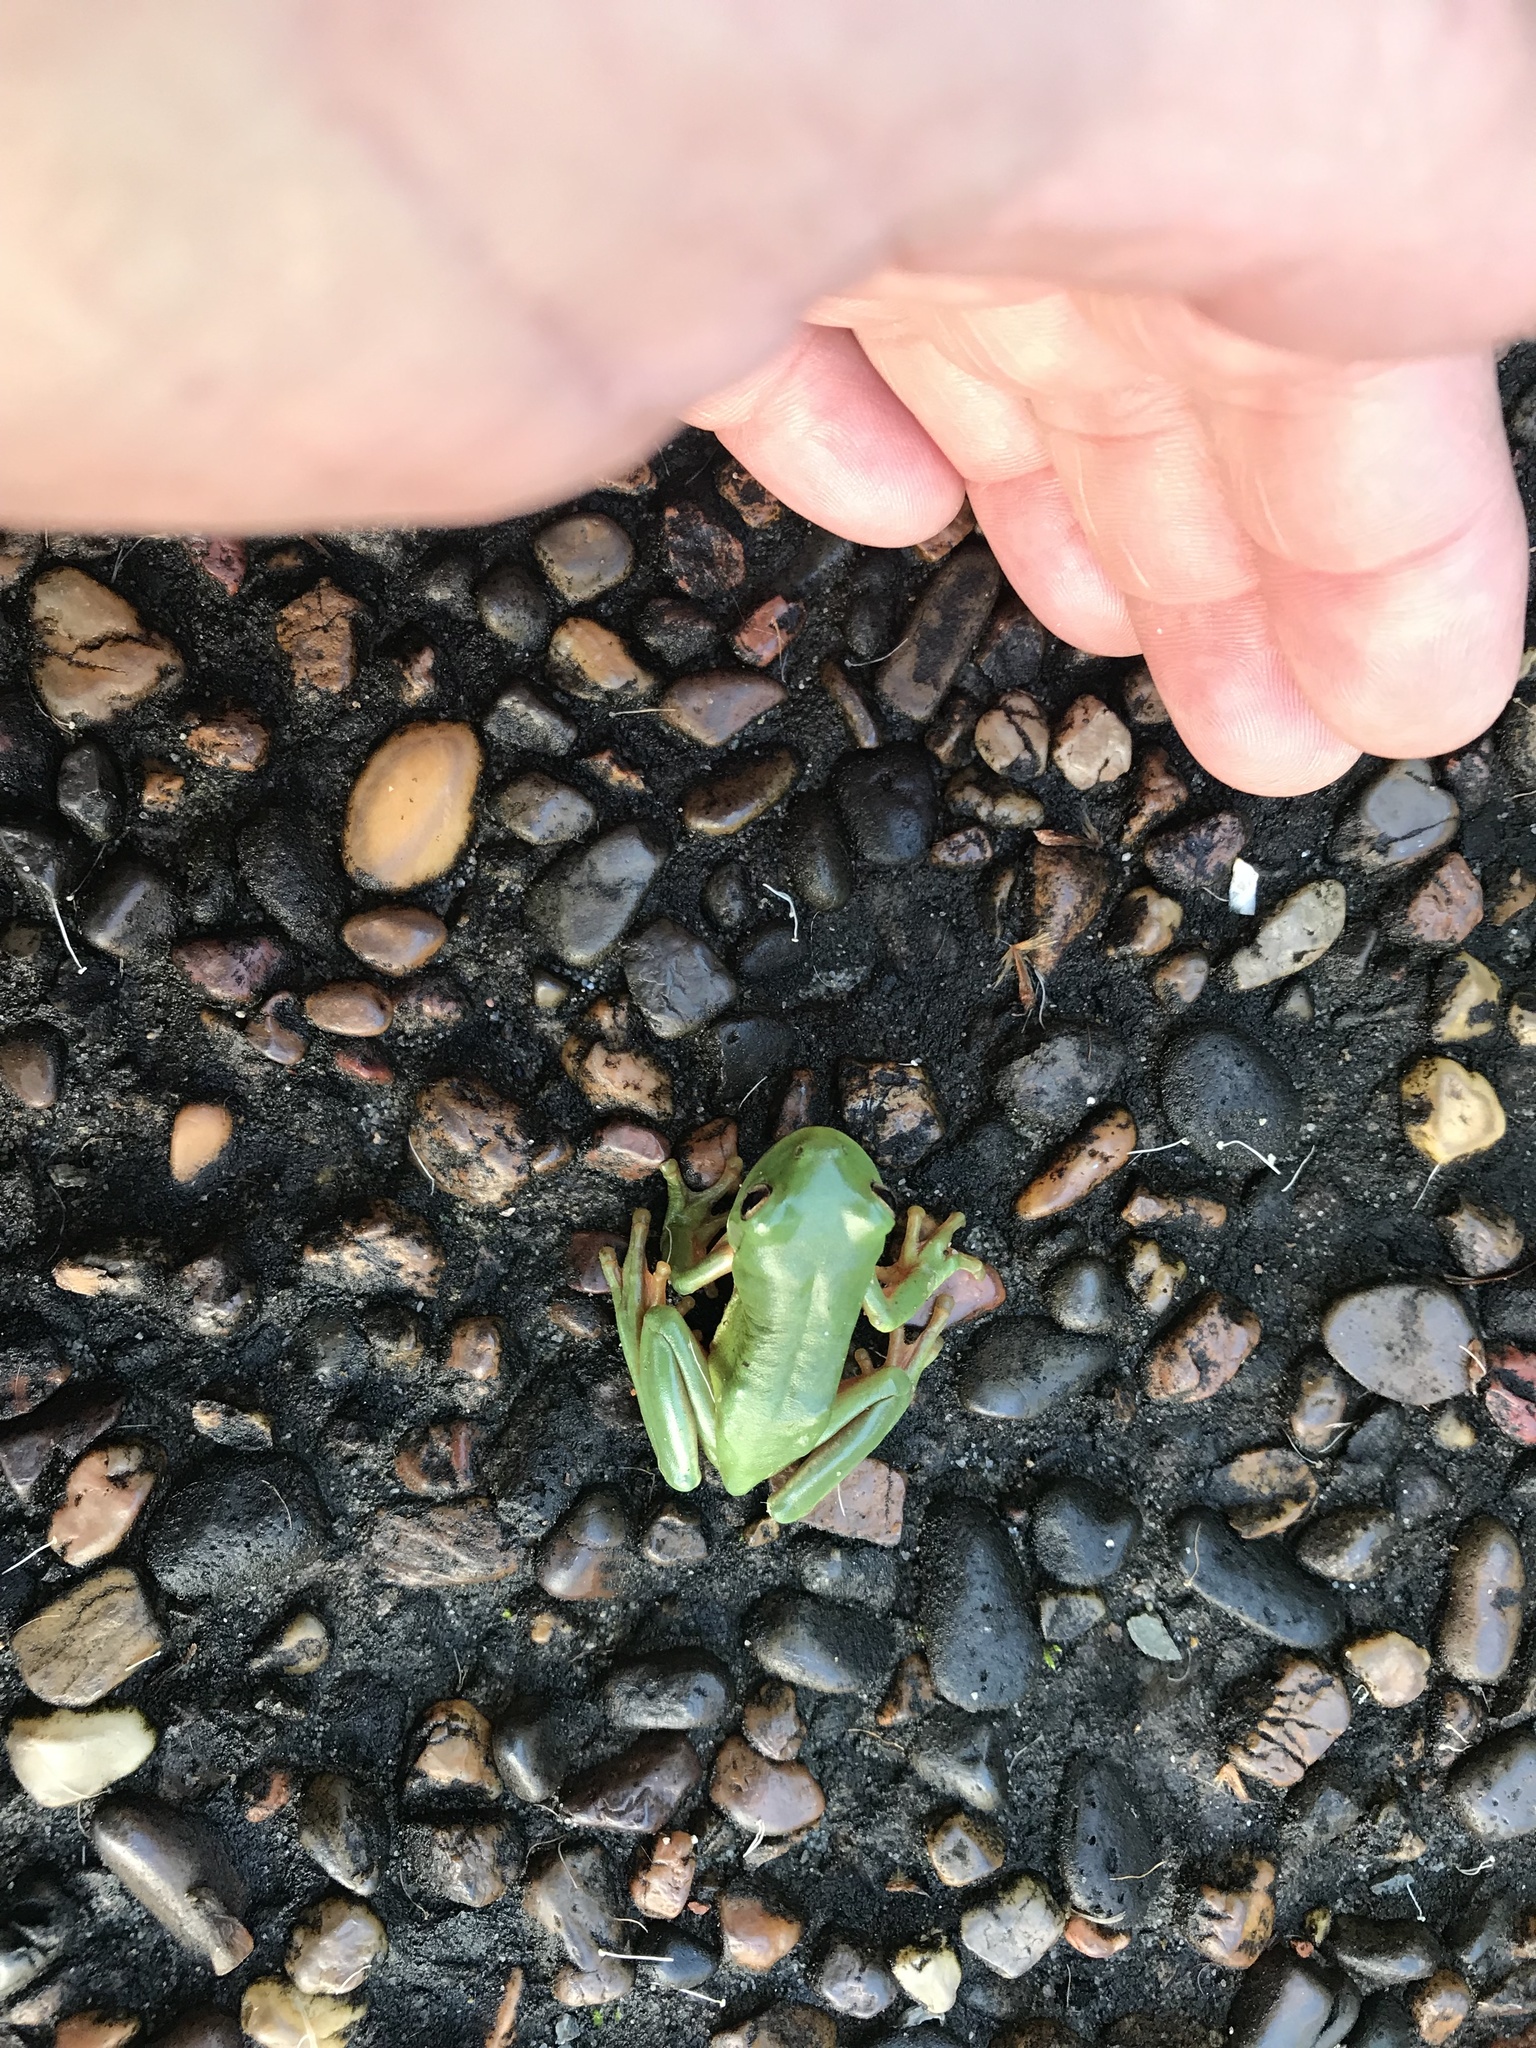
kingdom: Animalia
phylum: Chordata
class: Amphibia
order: Anura
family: Pelodryadidae
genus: Ranoidea
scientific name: Ranoidea caerulea
